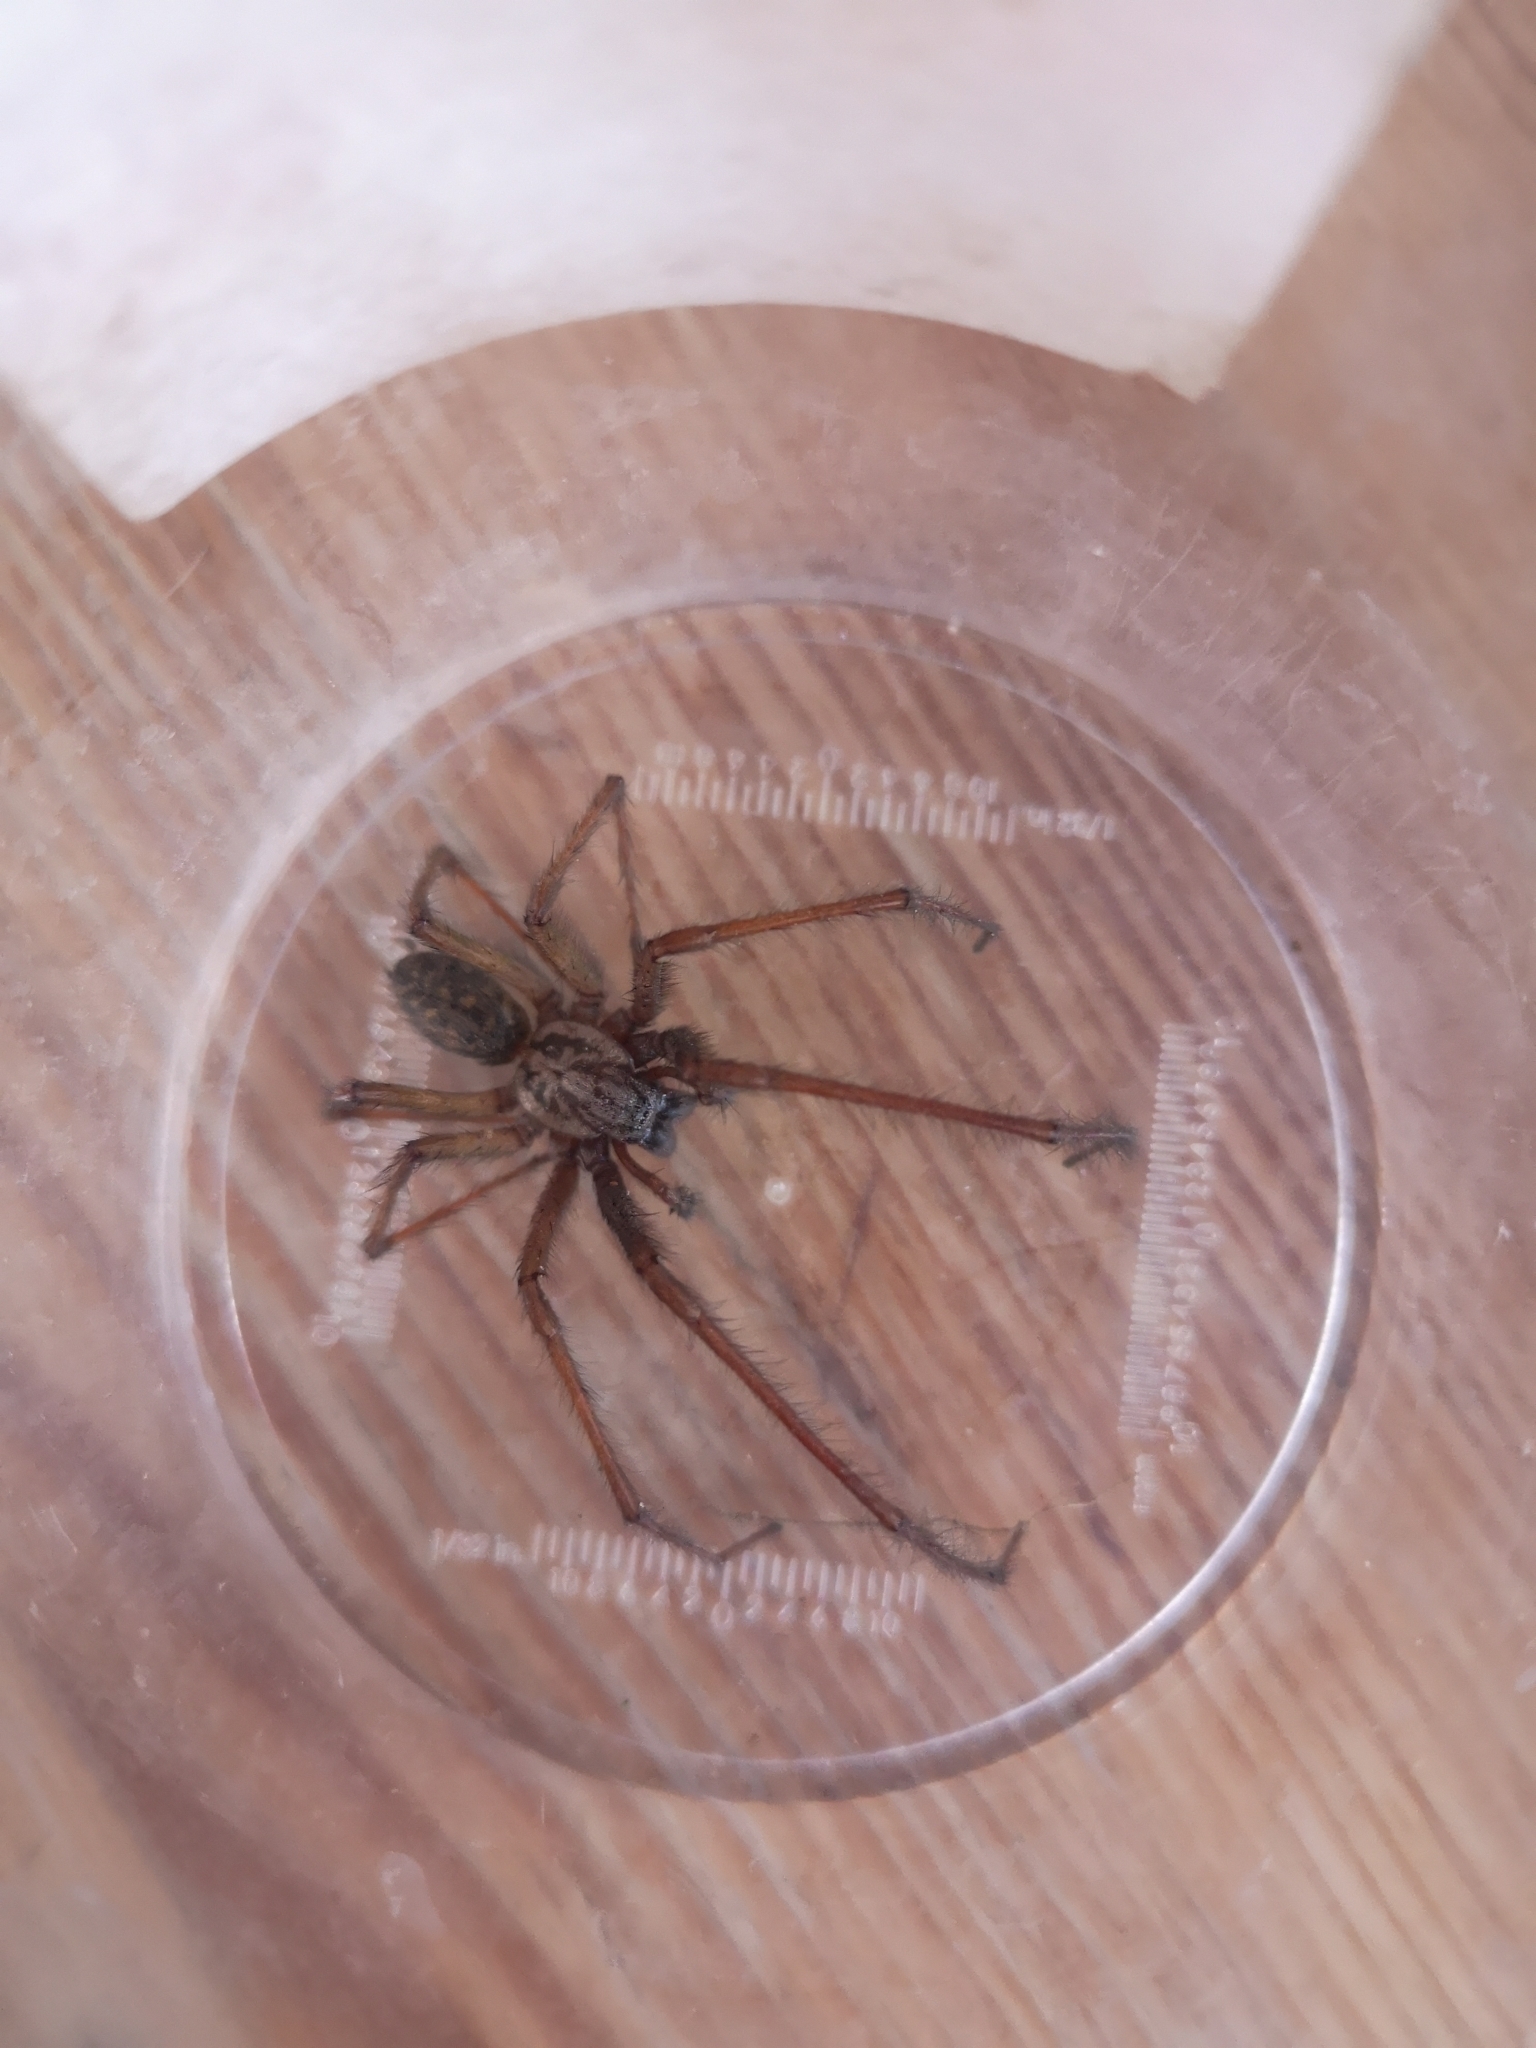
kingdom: Animalia
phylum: Arthropoda
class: Arachnida
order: Araneae
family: Agelenidae
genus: Eratigena
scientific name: Eratigena atrica
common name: Giant house spider
